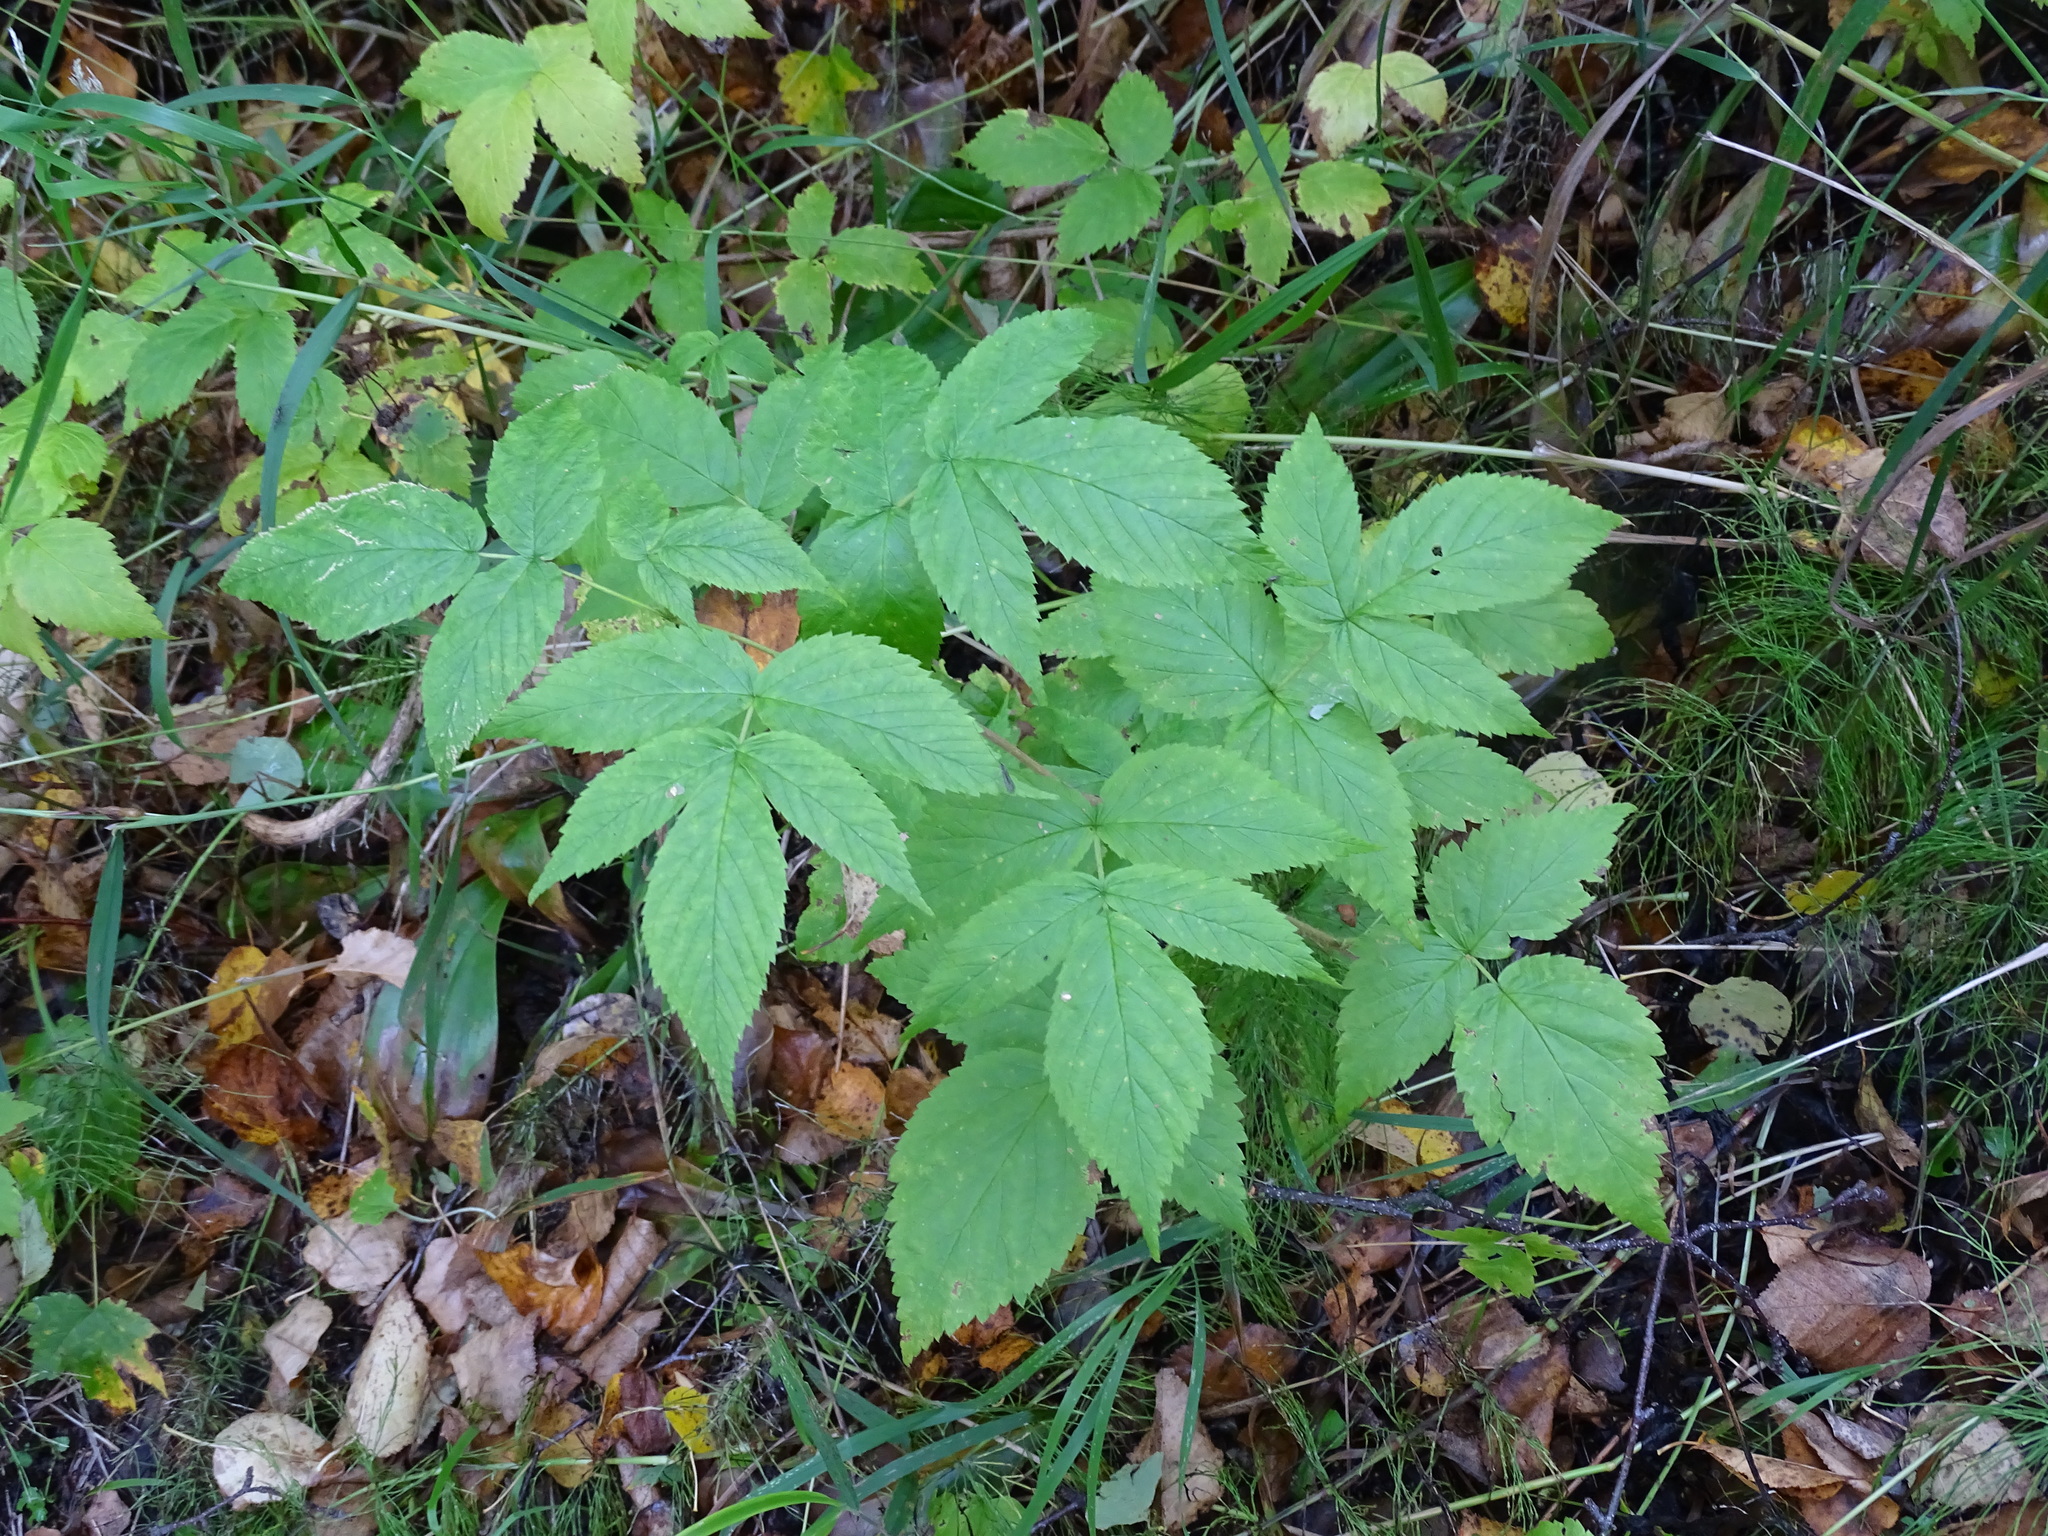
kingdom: Plantae
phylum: Tracheophyta
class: Magnoliopsida
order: Rosales
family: Rosaceae
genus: Rubus
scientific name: Rubus idaeus
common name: Raspberry
